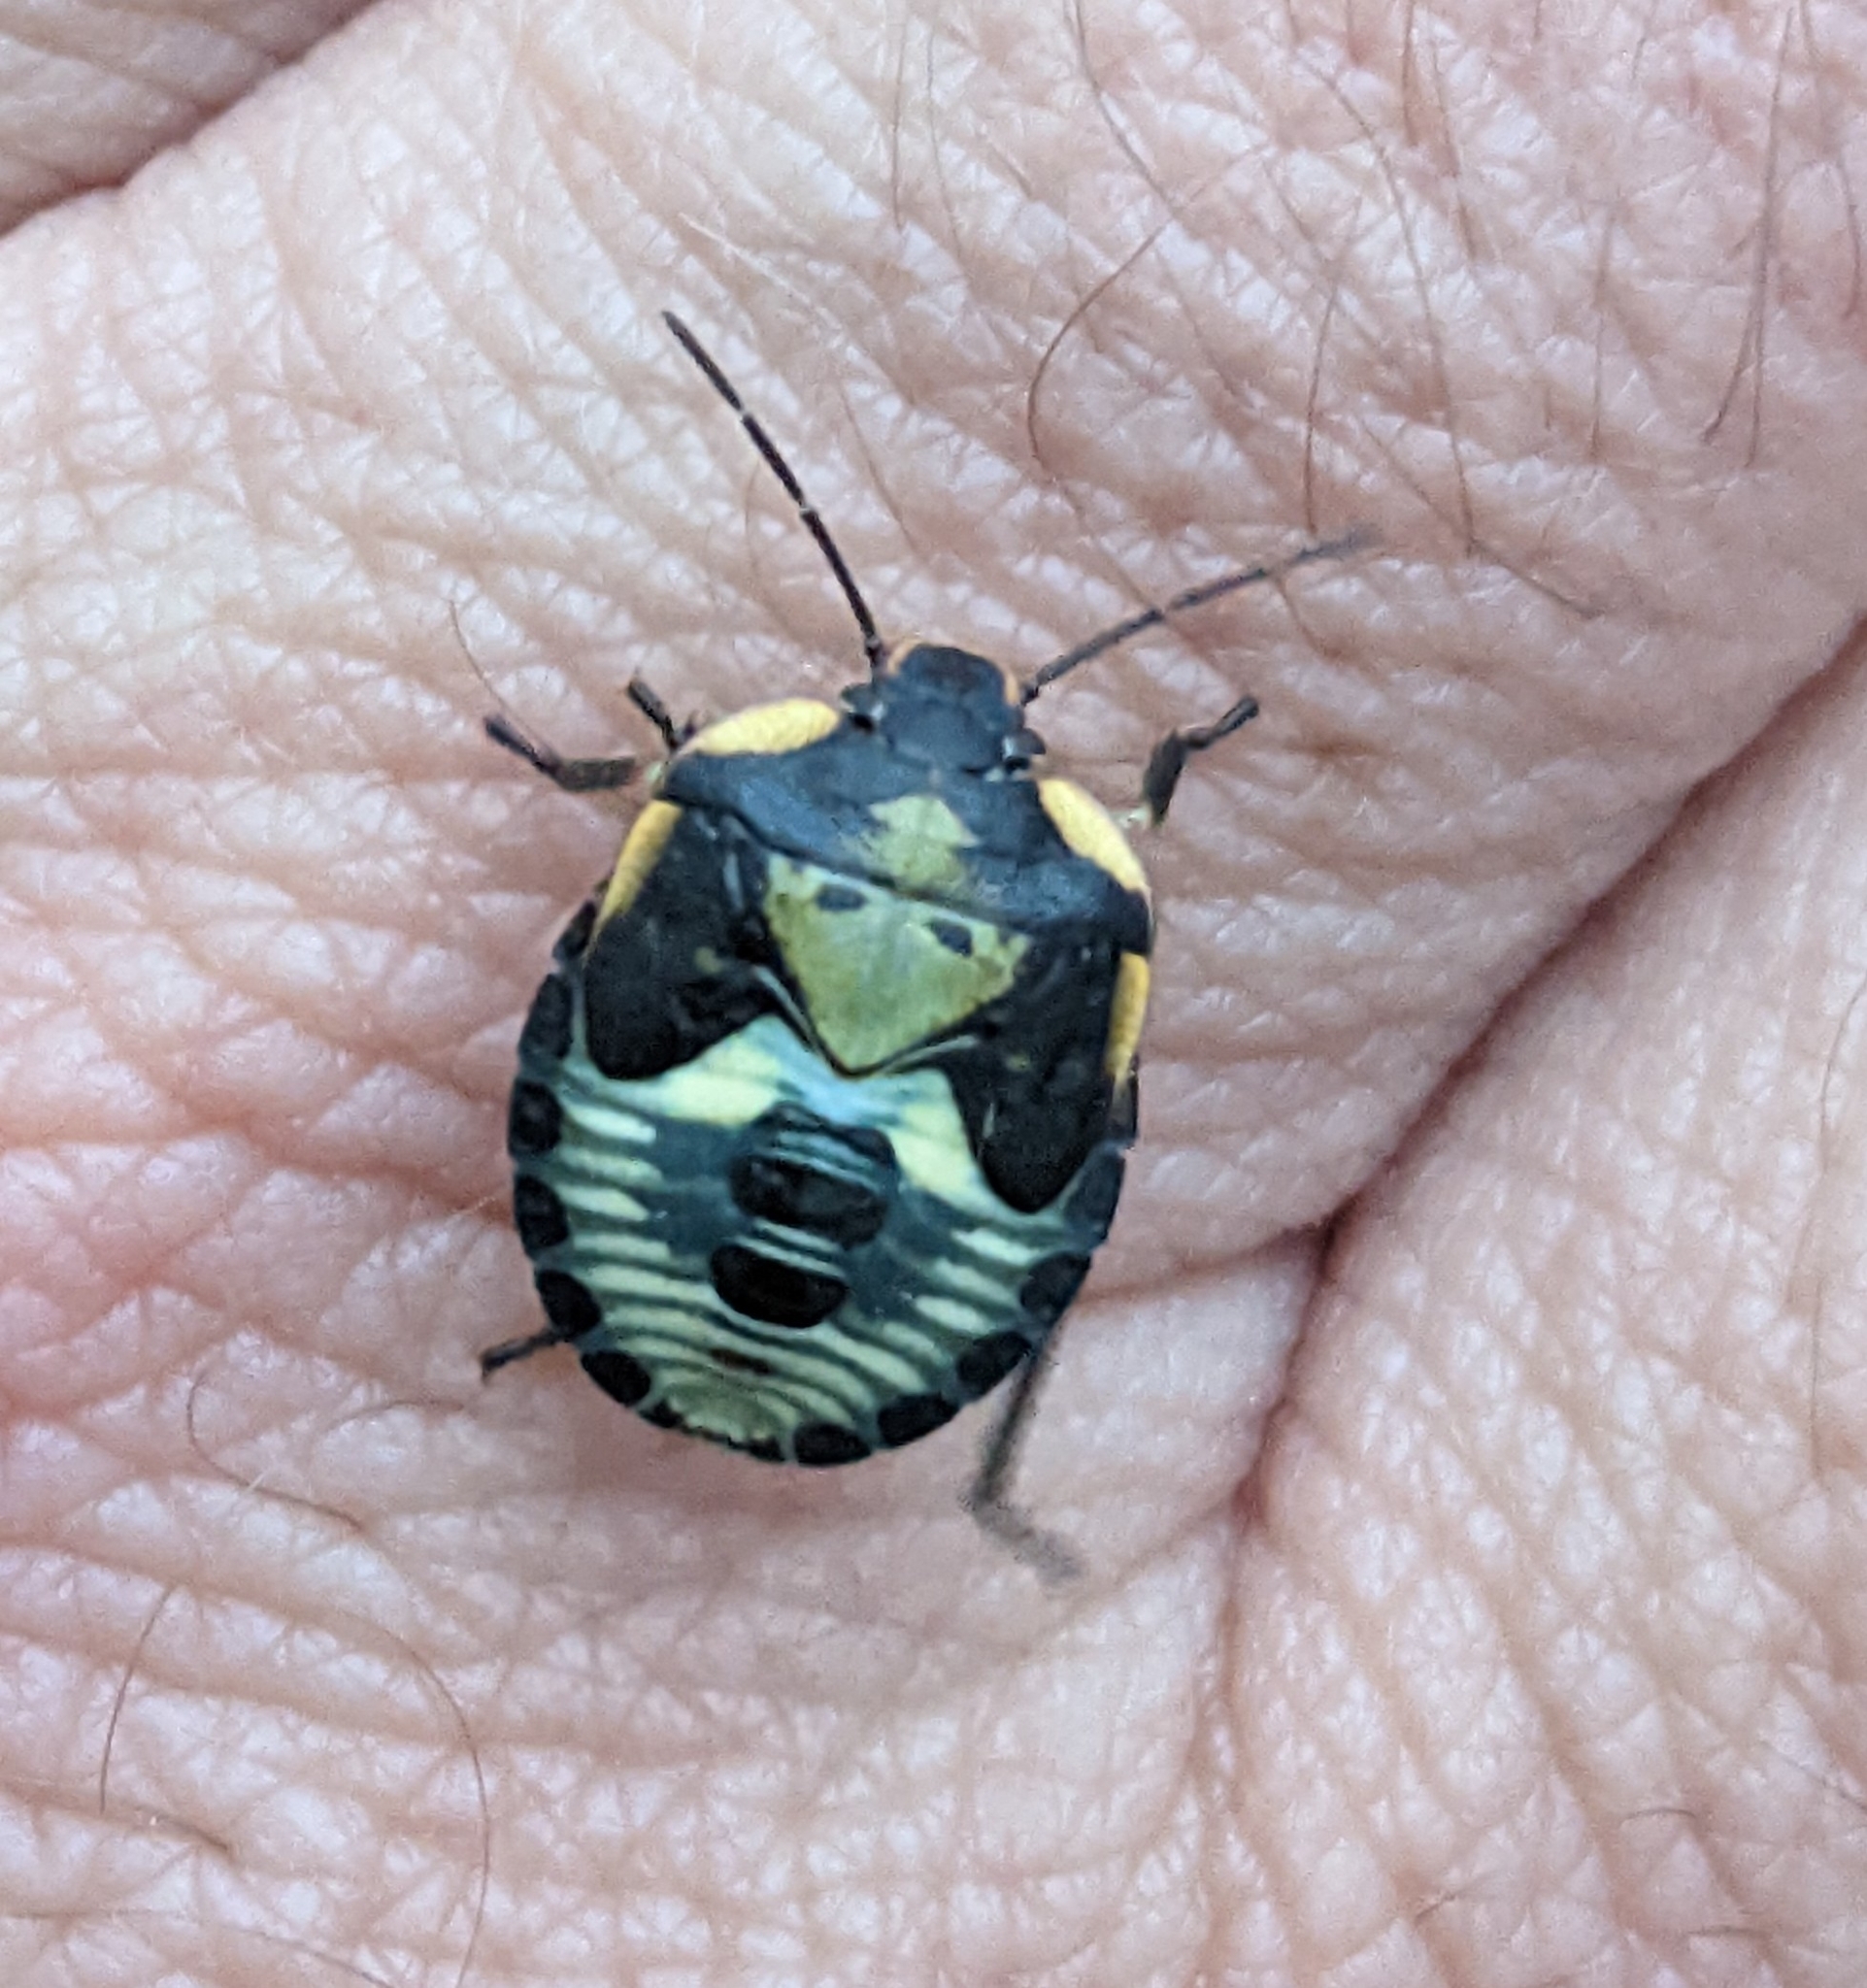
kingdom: Animalia
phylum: Arthropoda
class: Insecta
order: Hemiptera
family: Pentatomidae
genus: Chinavia
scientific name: Chinavia hilaris
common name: Green stink bug
